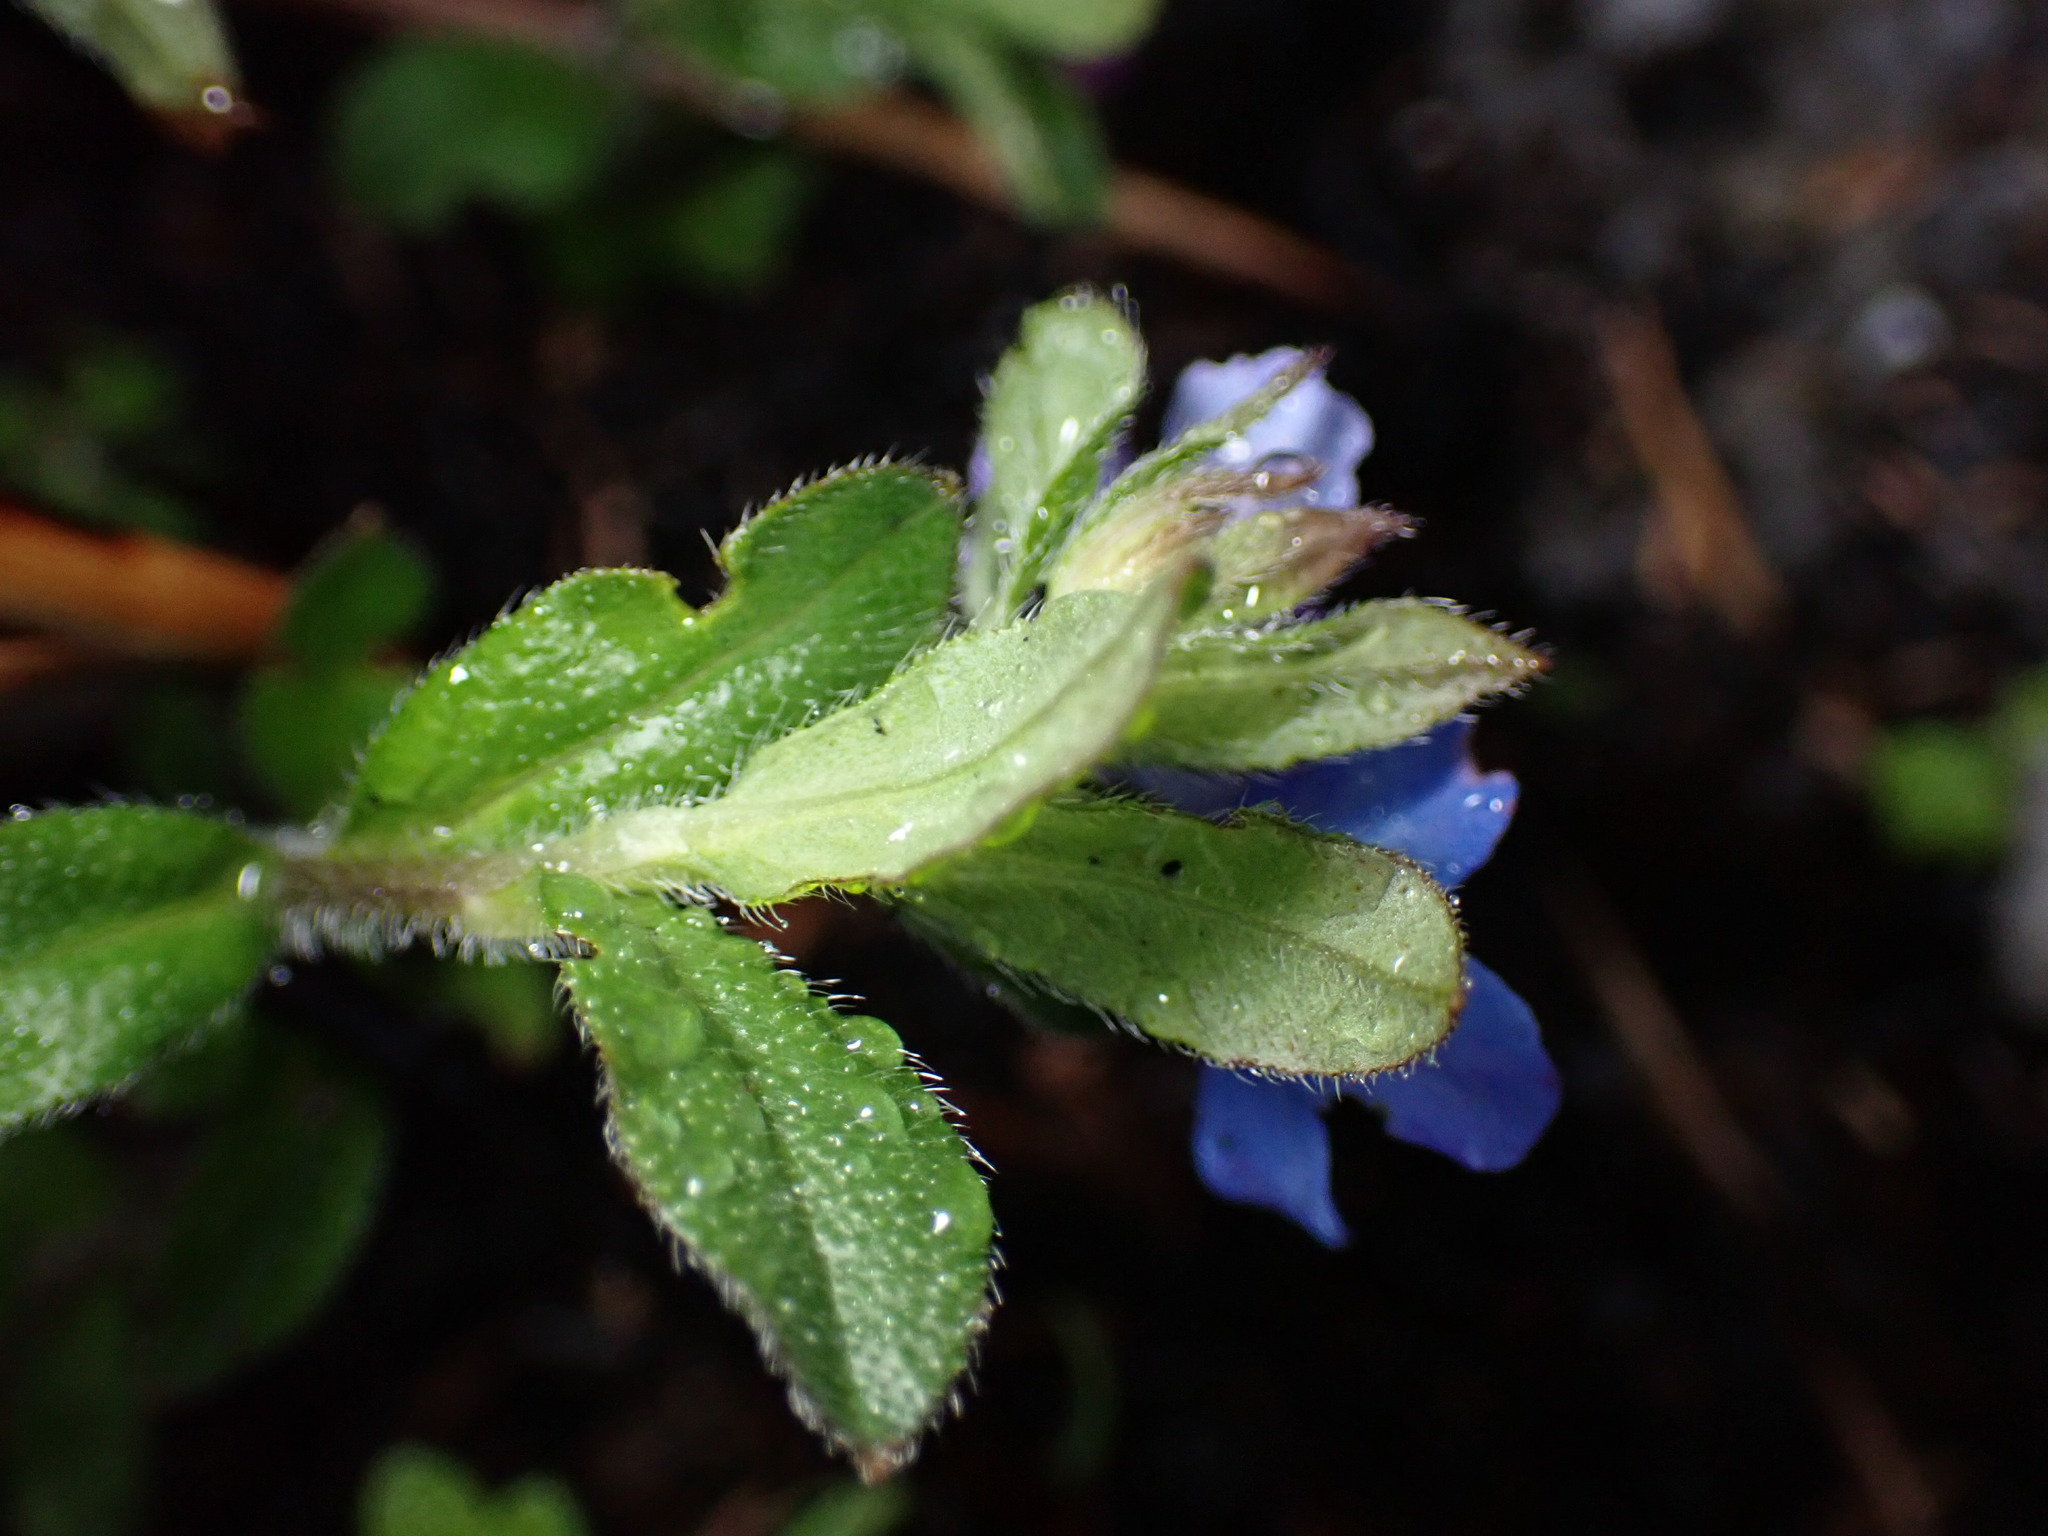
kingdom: Plantae
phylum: Tracheophyta
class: Magnoliopsida
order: Boraginales
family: Boraginaceae
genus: Aegonychon
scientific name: Aegonychon zollingeri
